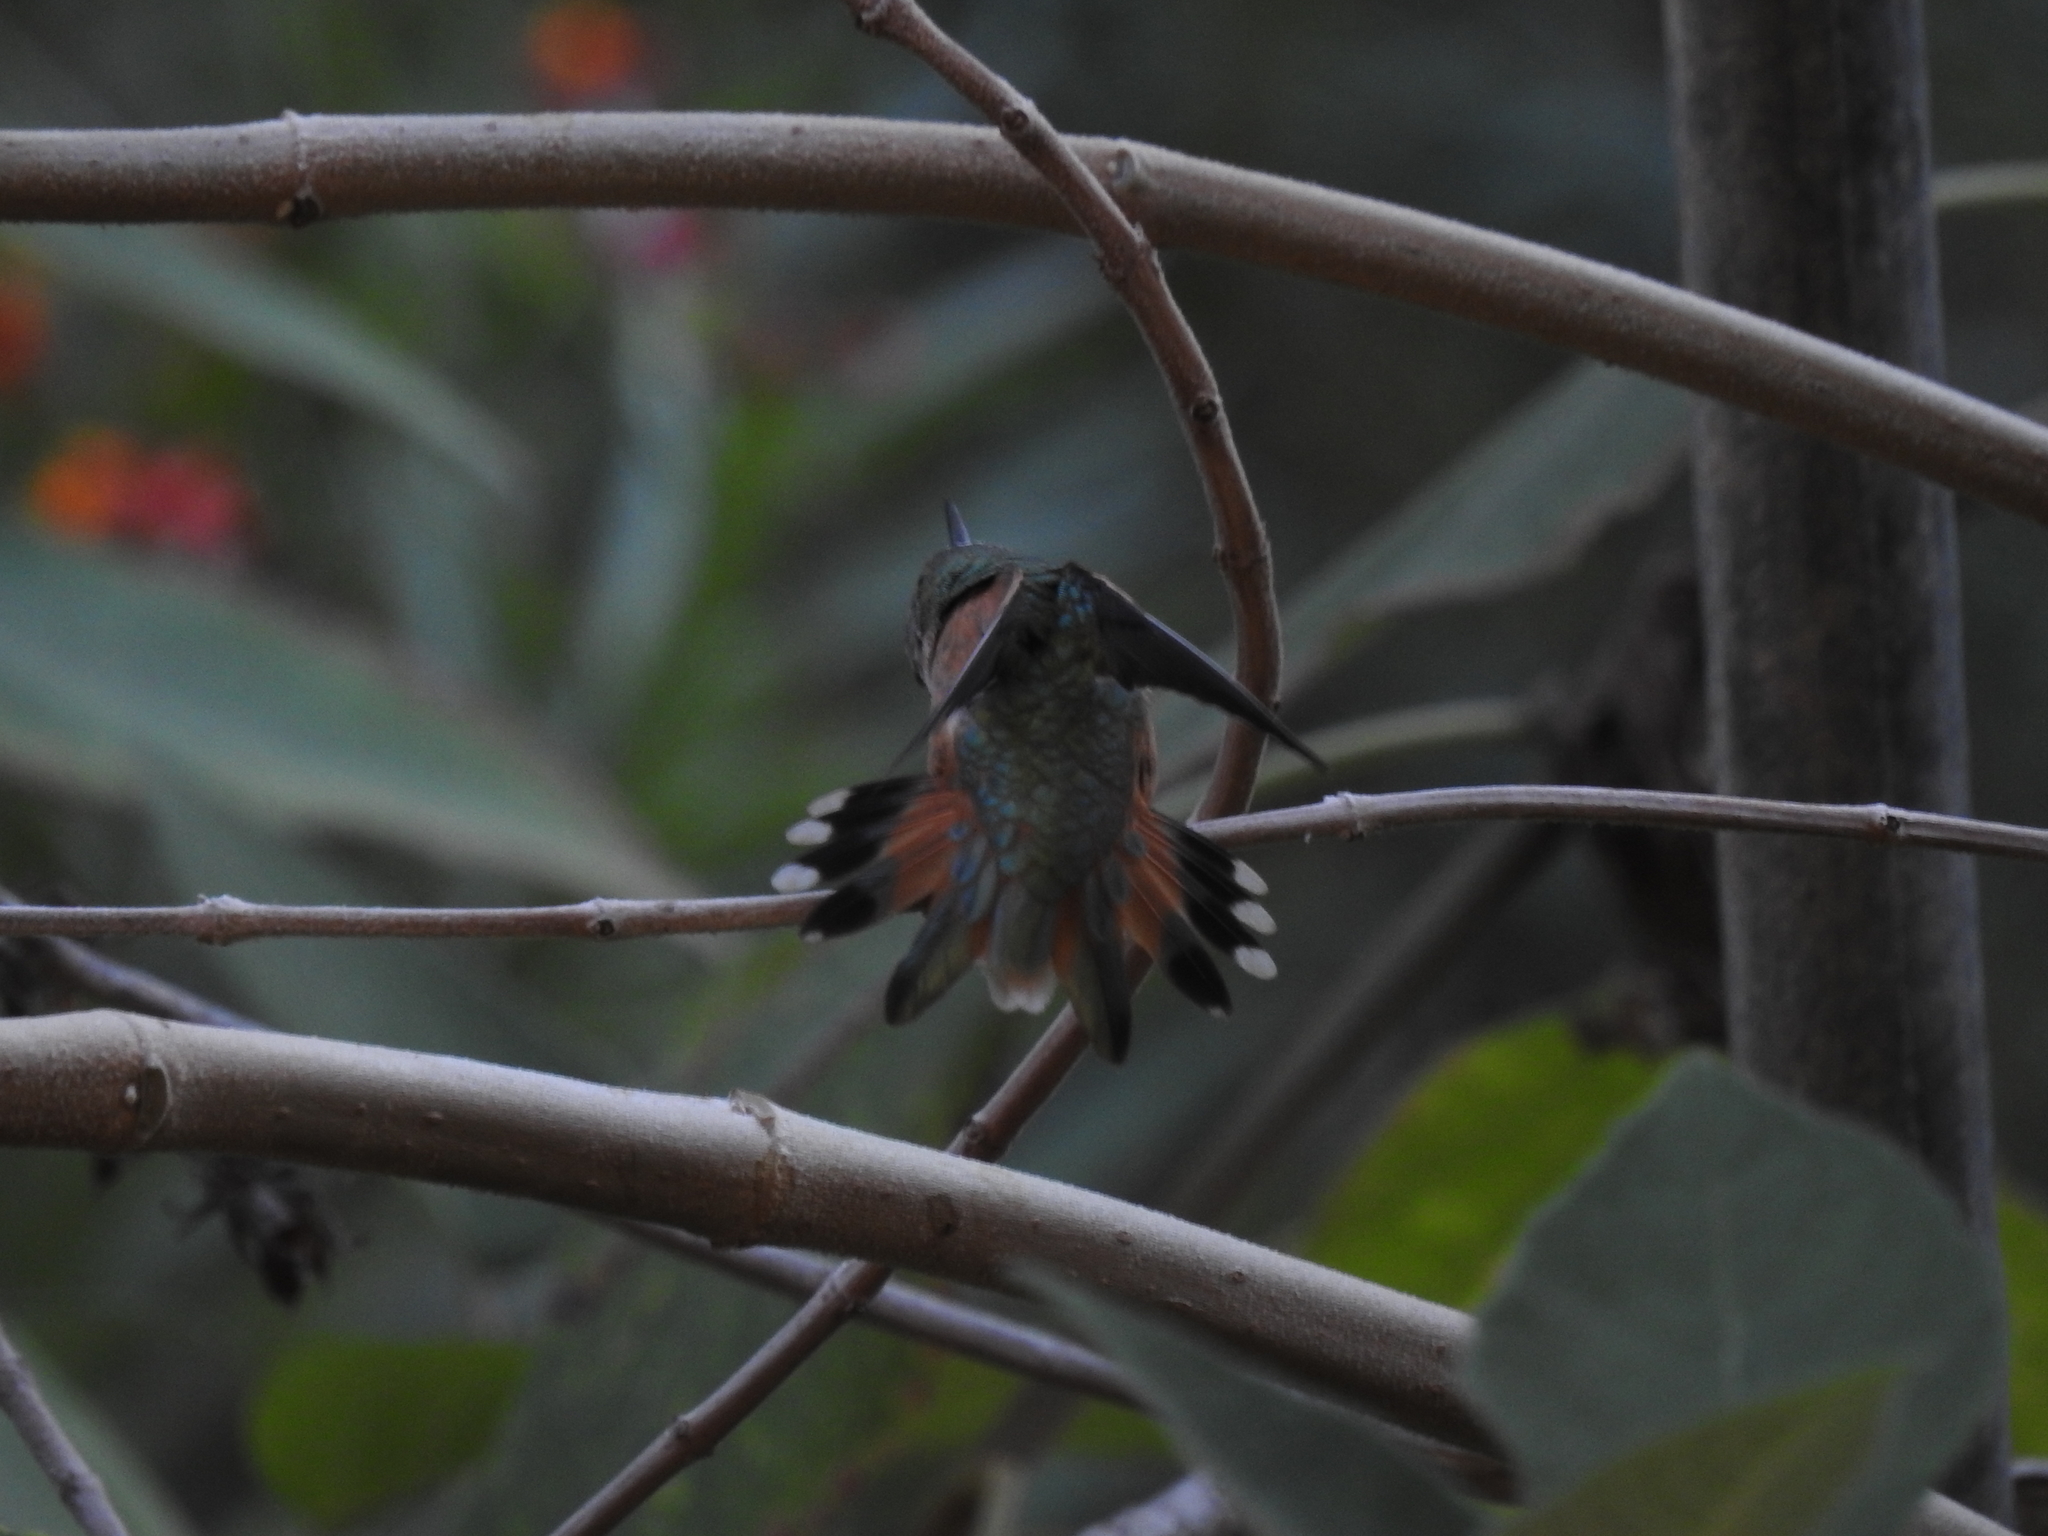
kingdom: Animalia
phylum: Chordata
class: Aves
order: Apodiformes
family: Trochilidae
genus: Selasphorus
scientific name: Selasphorus sasin
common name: Allen's hummingbird
